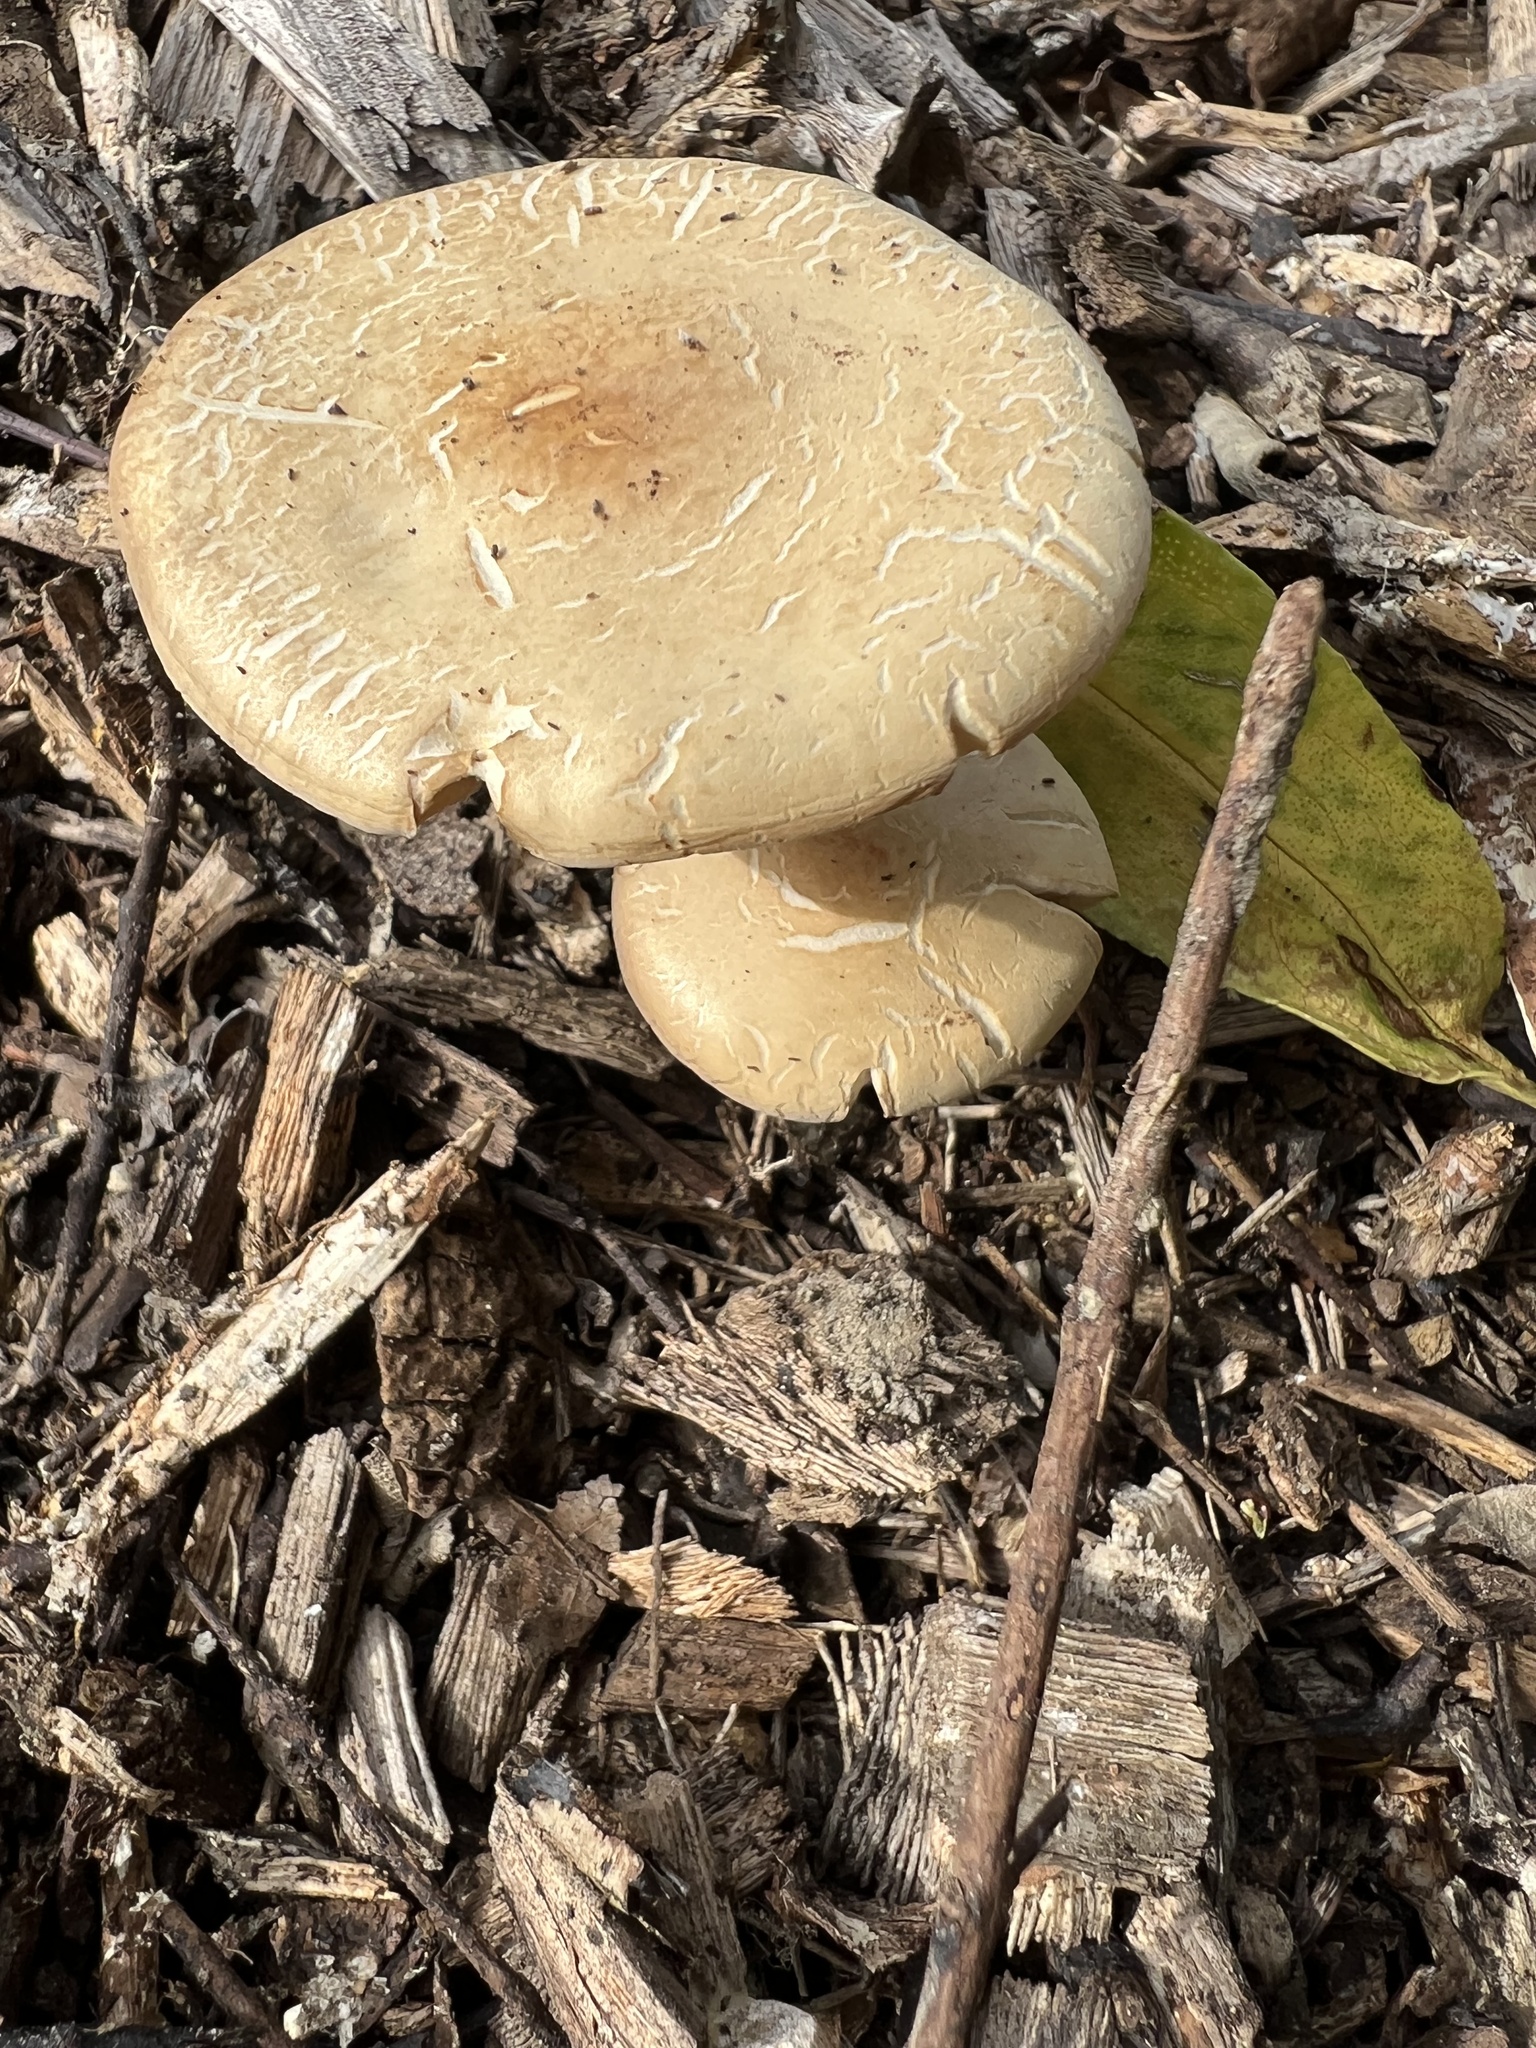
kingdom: Fungi
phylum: Basidiomycota
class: Agaricomycetes
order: Agaricales
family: Strophariaceae
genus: Agrocybe
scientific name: Agrocybe putaminum
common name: Mulch fieldcap
